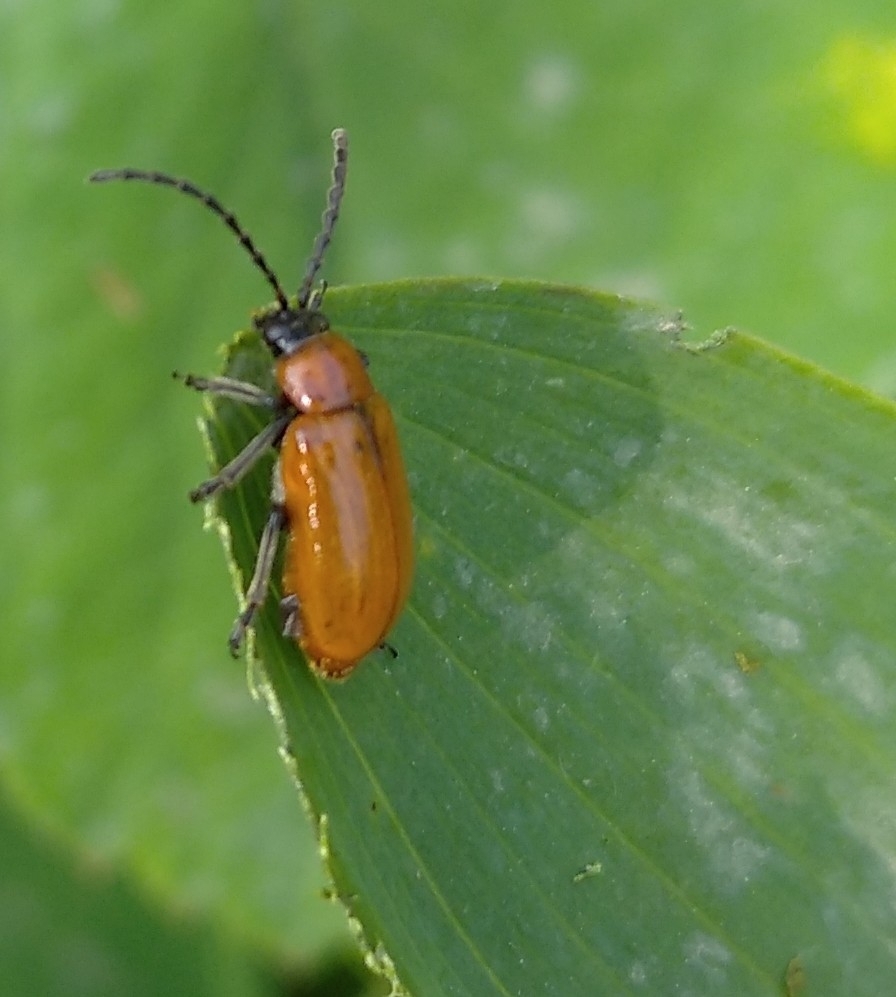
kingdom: Animalia
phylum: Arthropoda
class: Insecta
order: Coleoptera
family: Chrysomelidae
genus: Exosoma
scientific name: Exosoma lusitanicum
